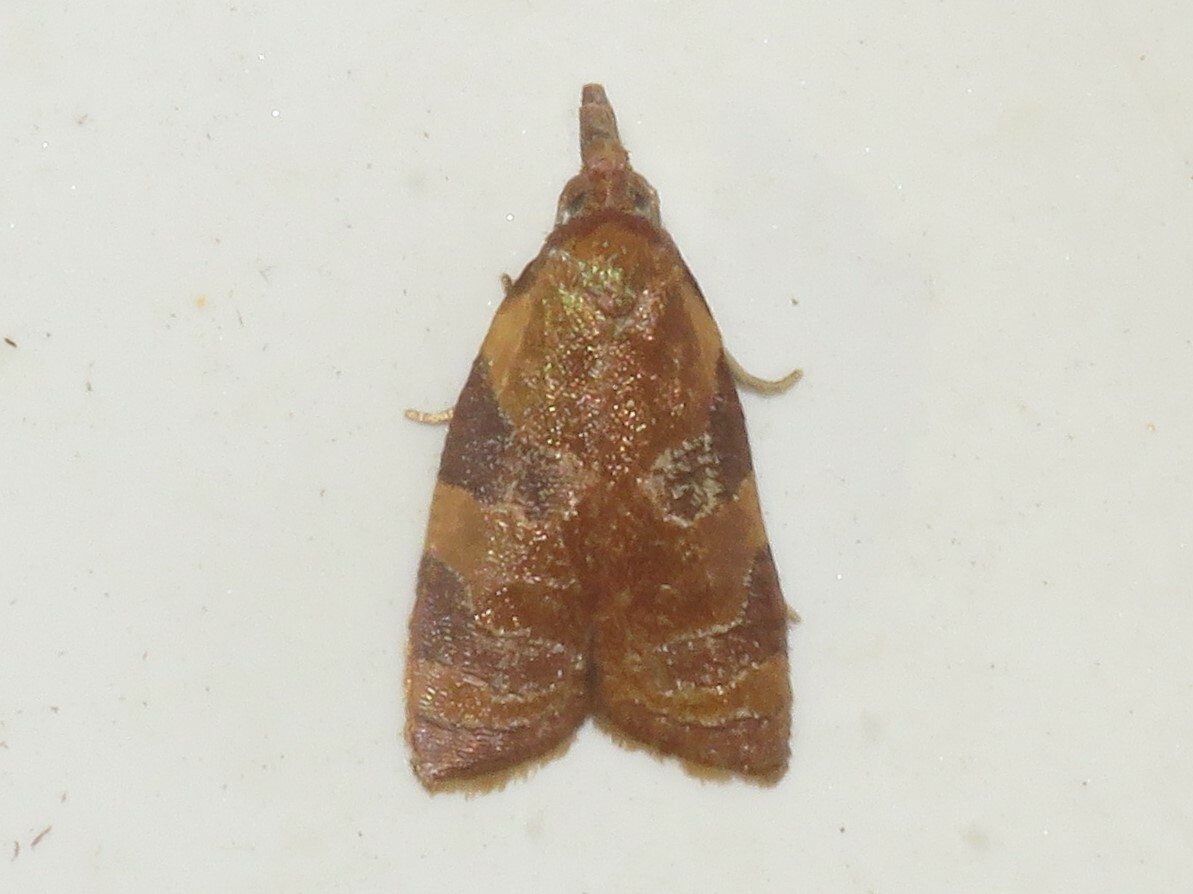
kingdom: Animalia
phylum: Arthropoda
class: Insecta
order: Lepidoptera
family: Tortricidae
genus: Cenopis
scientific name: Cenopis diluticostana
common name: Spring dead-leaf roller moth
